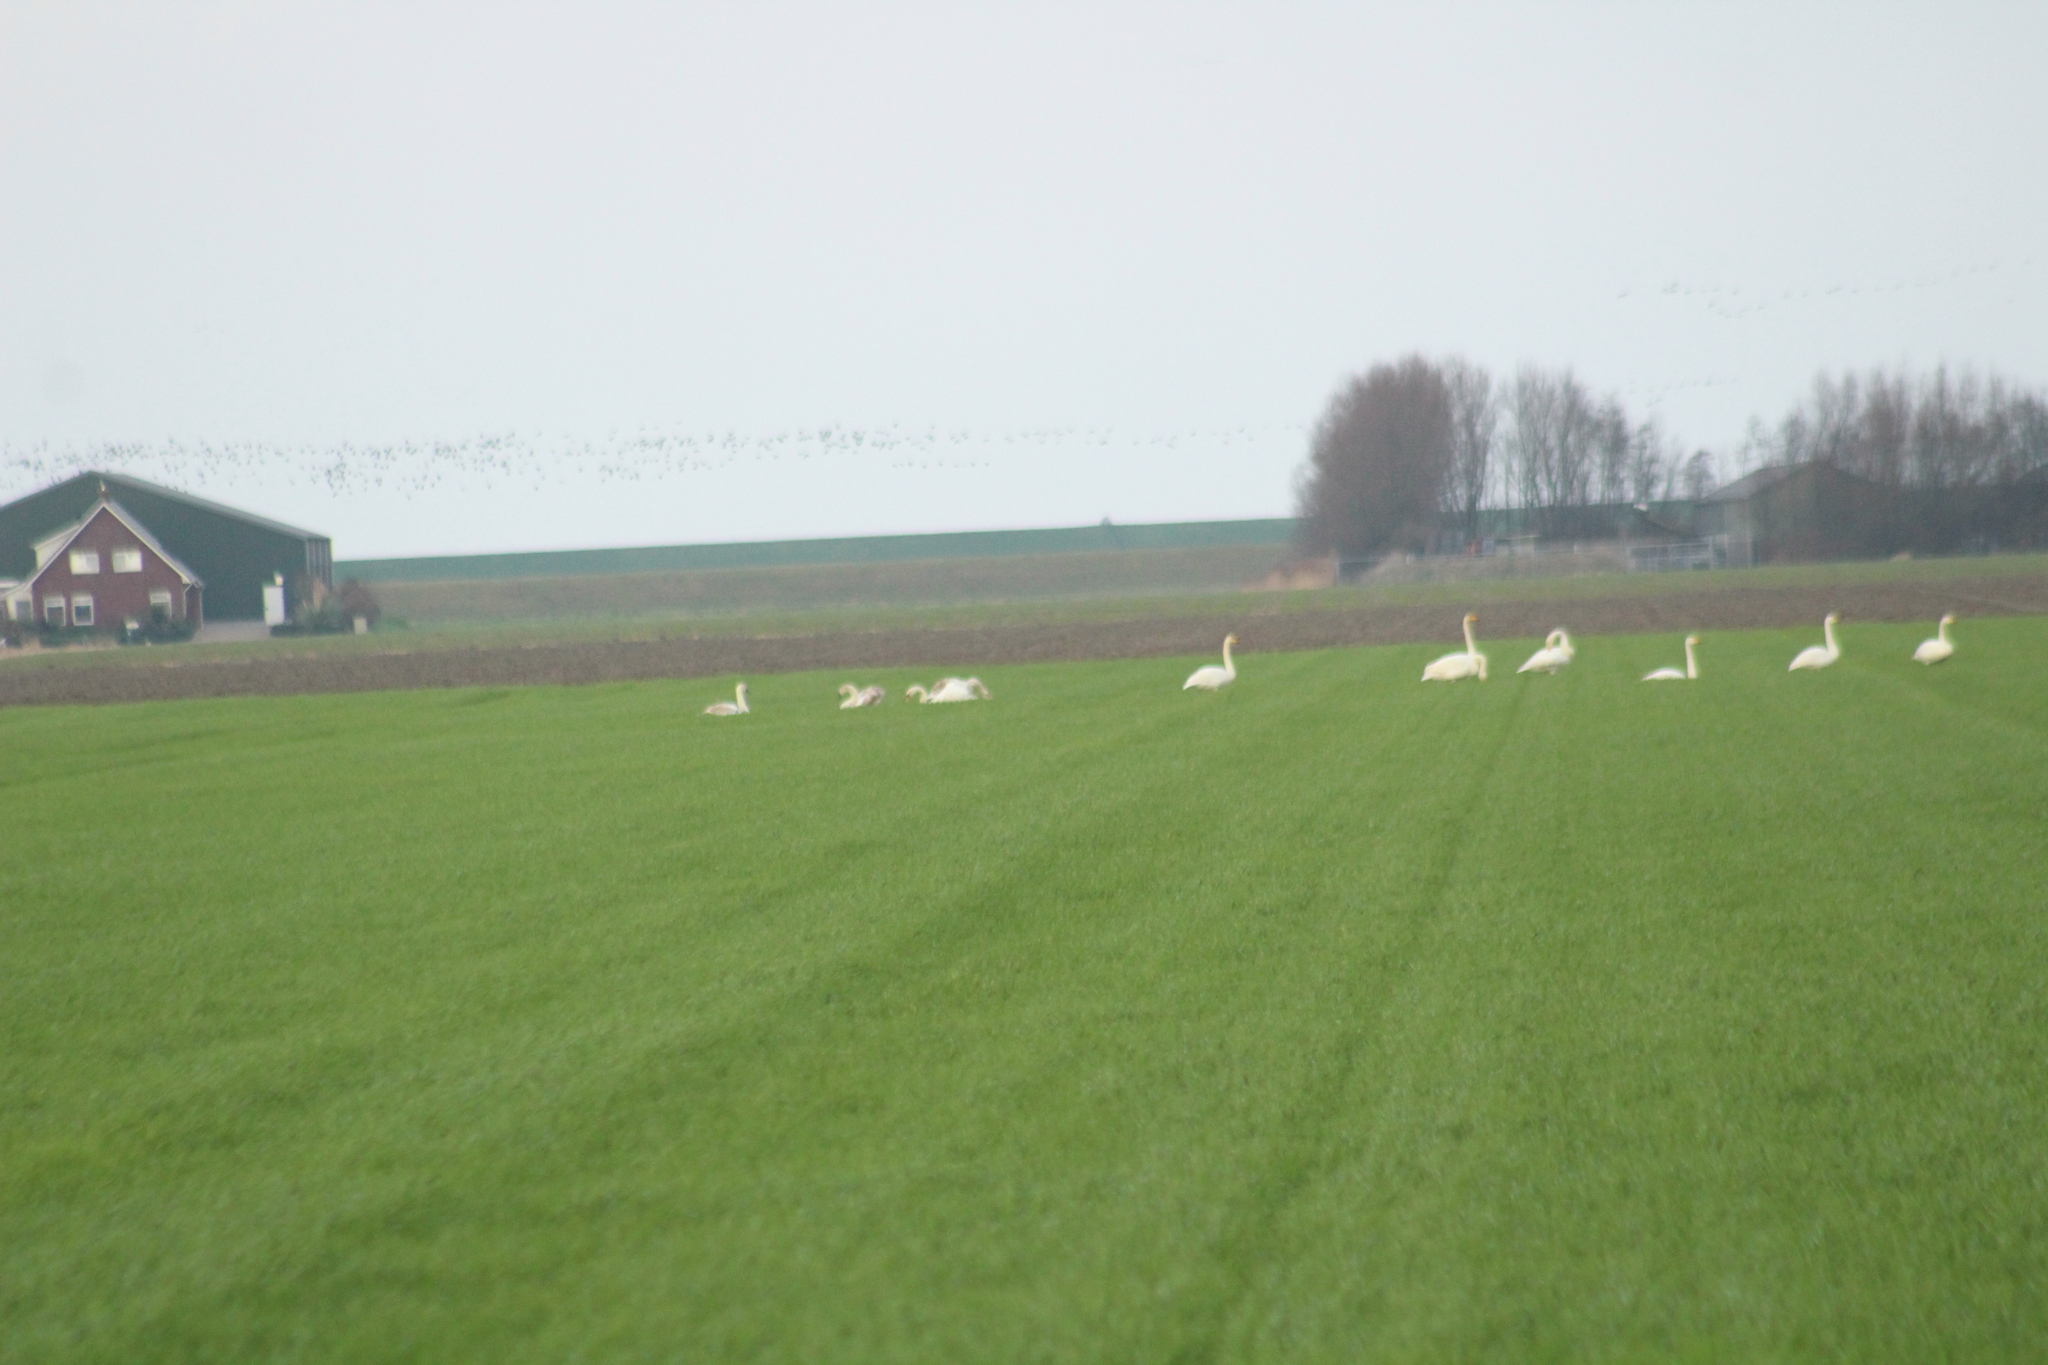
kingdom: Animalia
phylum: Chordata
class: Aves
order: Anseriformes
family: Anatidae
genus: Cygnus
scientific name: Cygnus olor
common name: Mute swan
